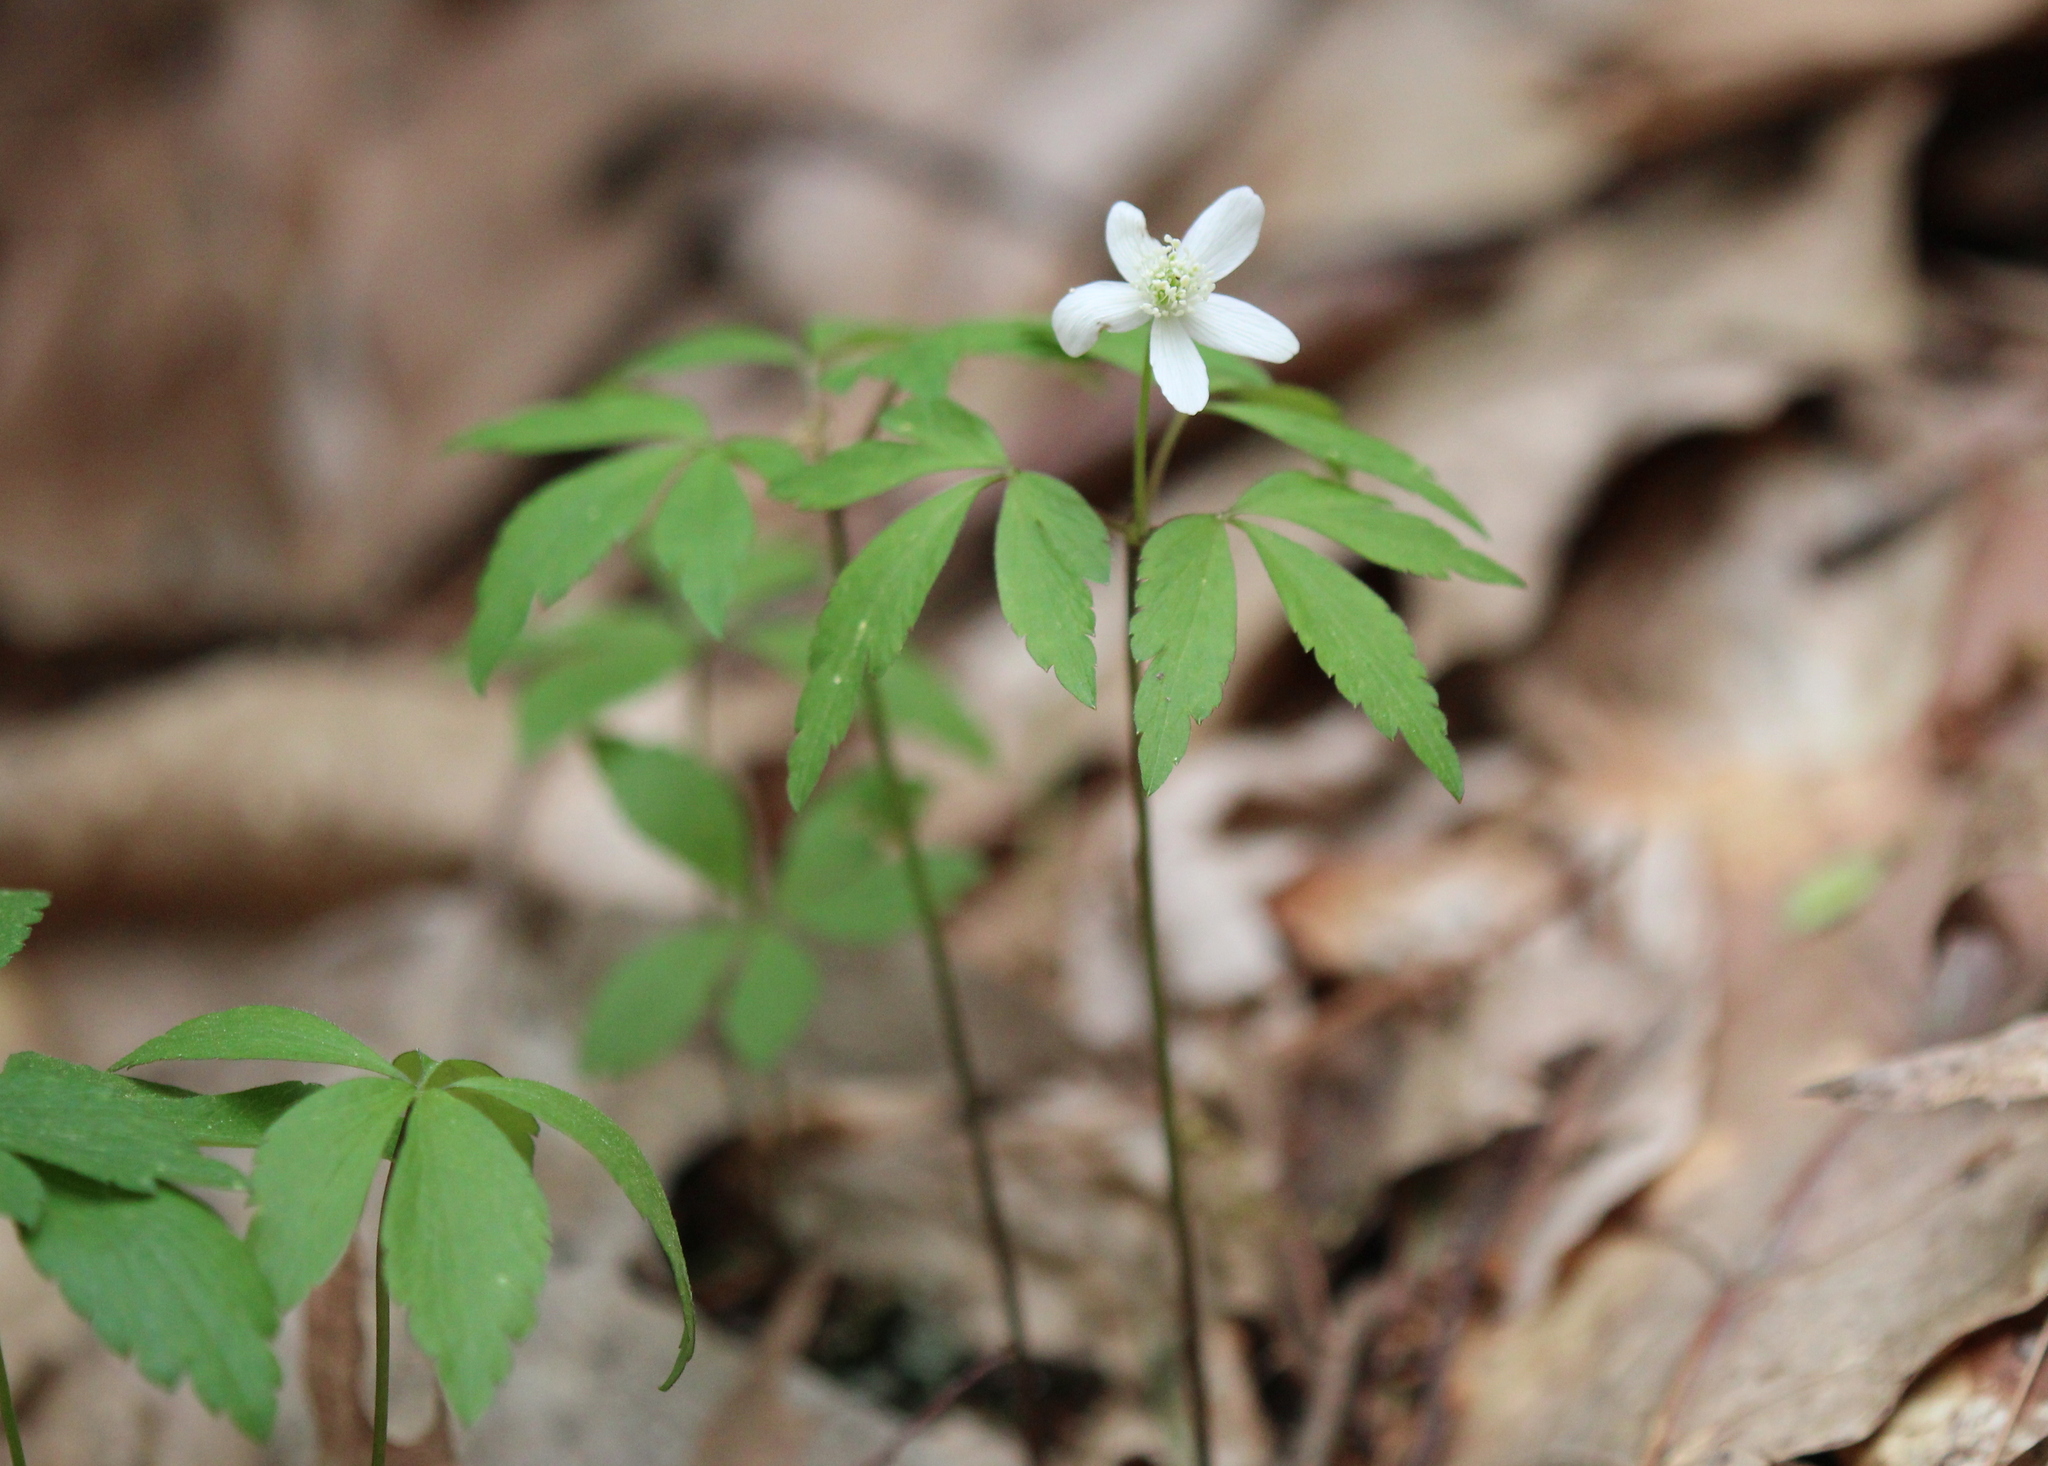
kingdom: Plantae
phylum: Tracheophyta
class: Magnoliopsida
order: Ranunculales
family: Ranunculaceae
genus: Anemone
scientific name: Anemone quinquefolia
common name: Wood anemone
